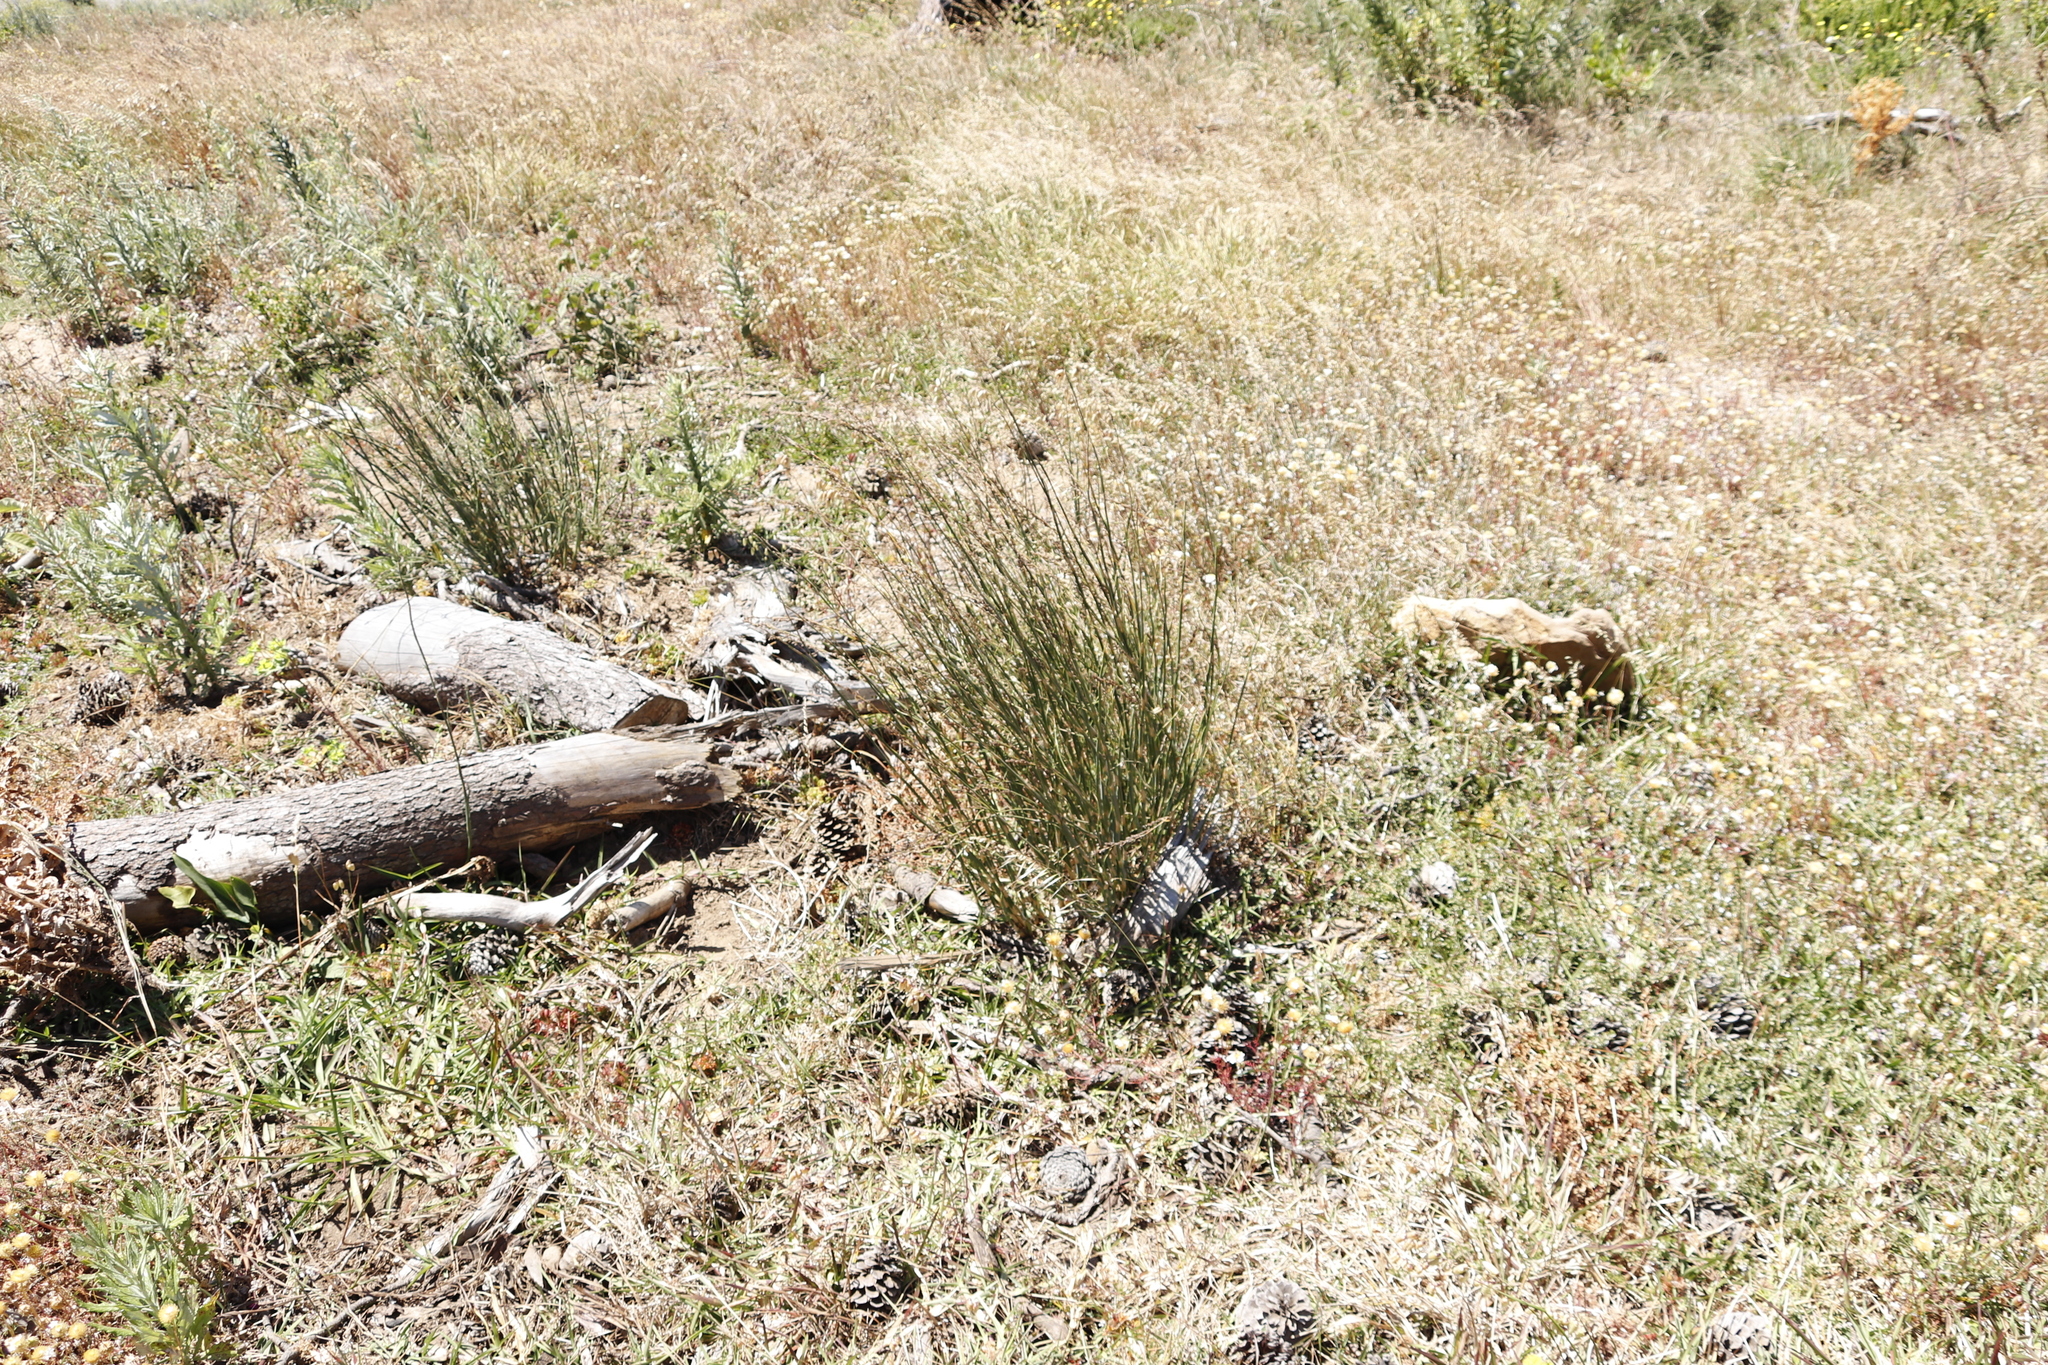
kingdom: Plantae
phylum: Tracheophyta
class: Liliopsida
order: Poales
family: Restionaceae
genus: Restio
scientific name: Restio tetragonus
